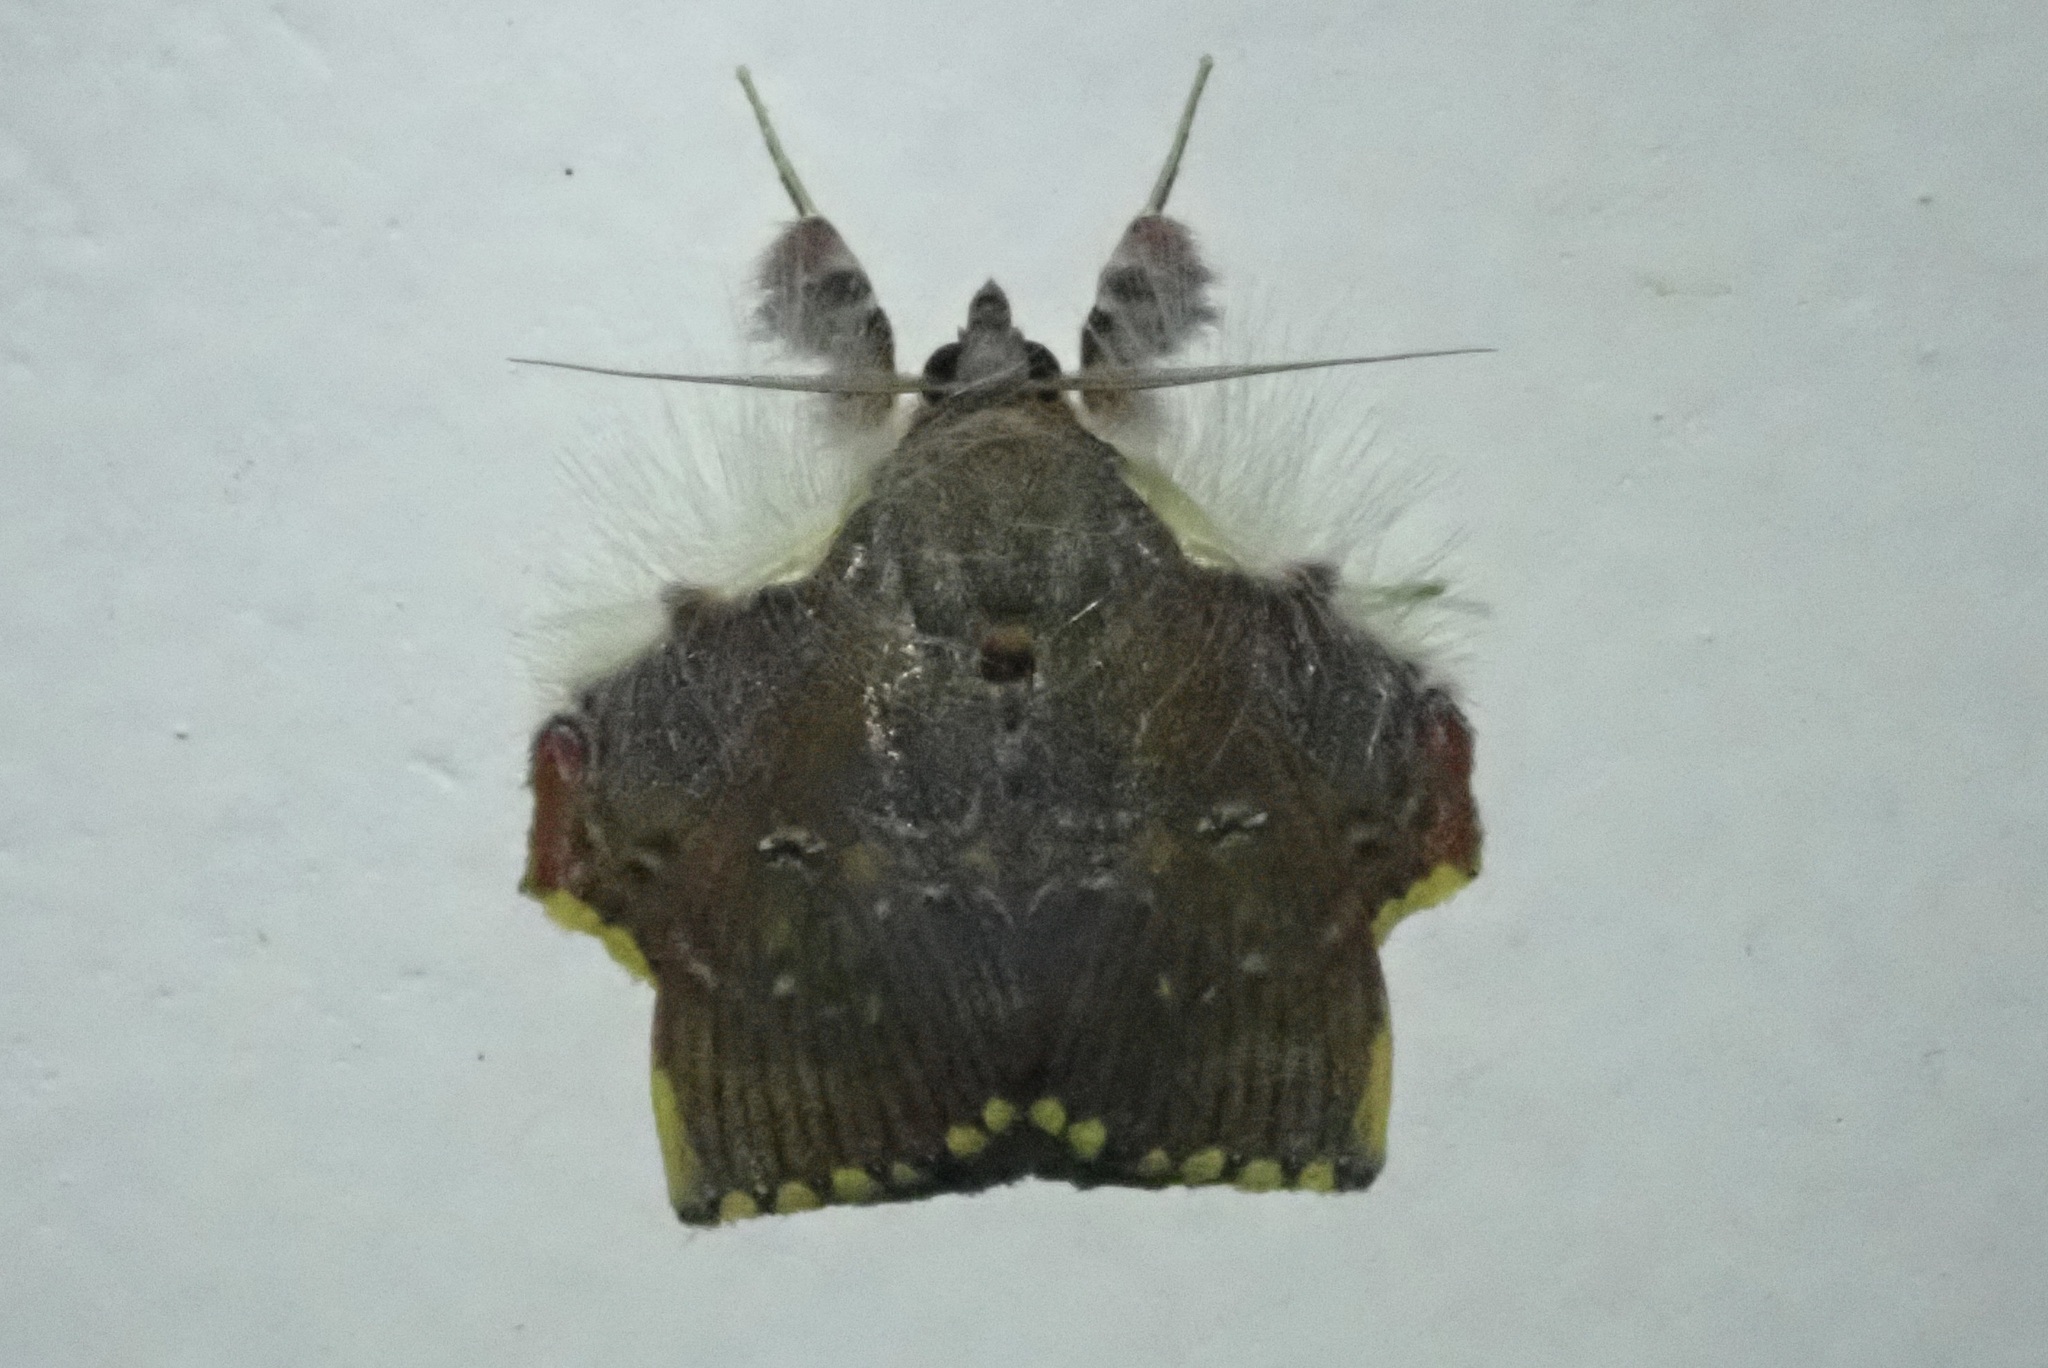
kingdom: Animalia
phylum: Arthropoda
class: Insecta
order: Lepidoptera
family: Erebidae
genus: Sosxetra
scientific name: Sosxetra grata
